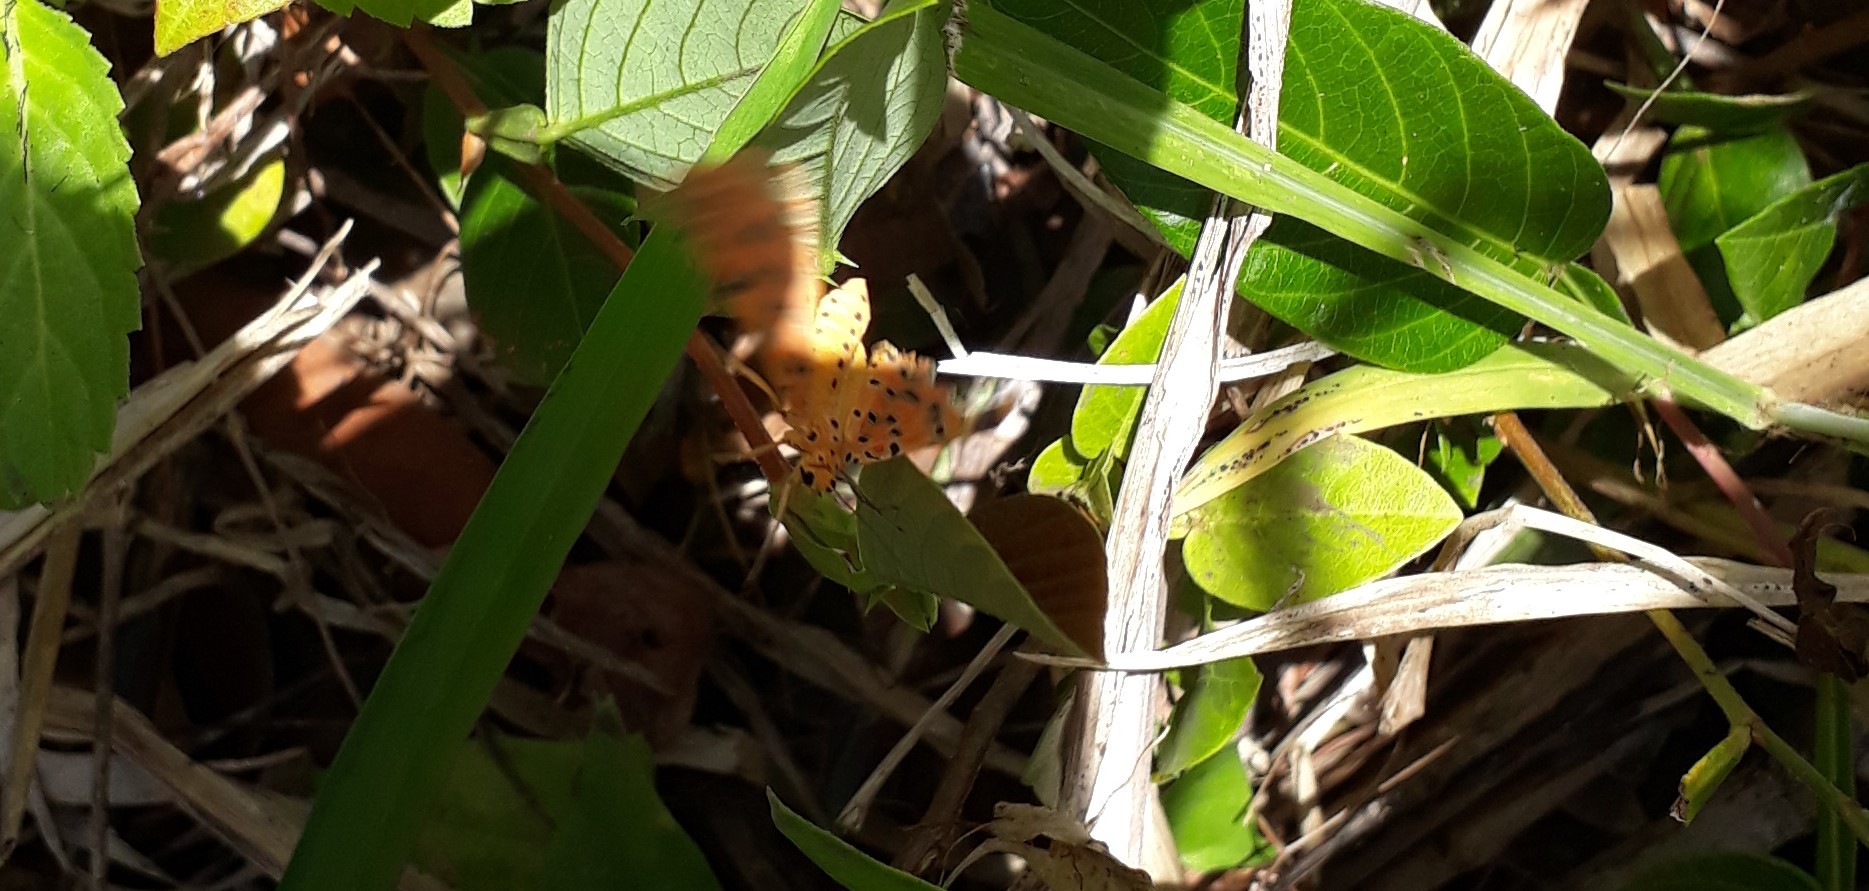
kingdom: Animalia
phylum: Arthropoda
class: Insecta
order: Lepidoptera
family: Erebidae
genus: Argina
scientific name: Argina astrea
